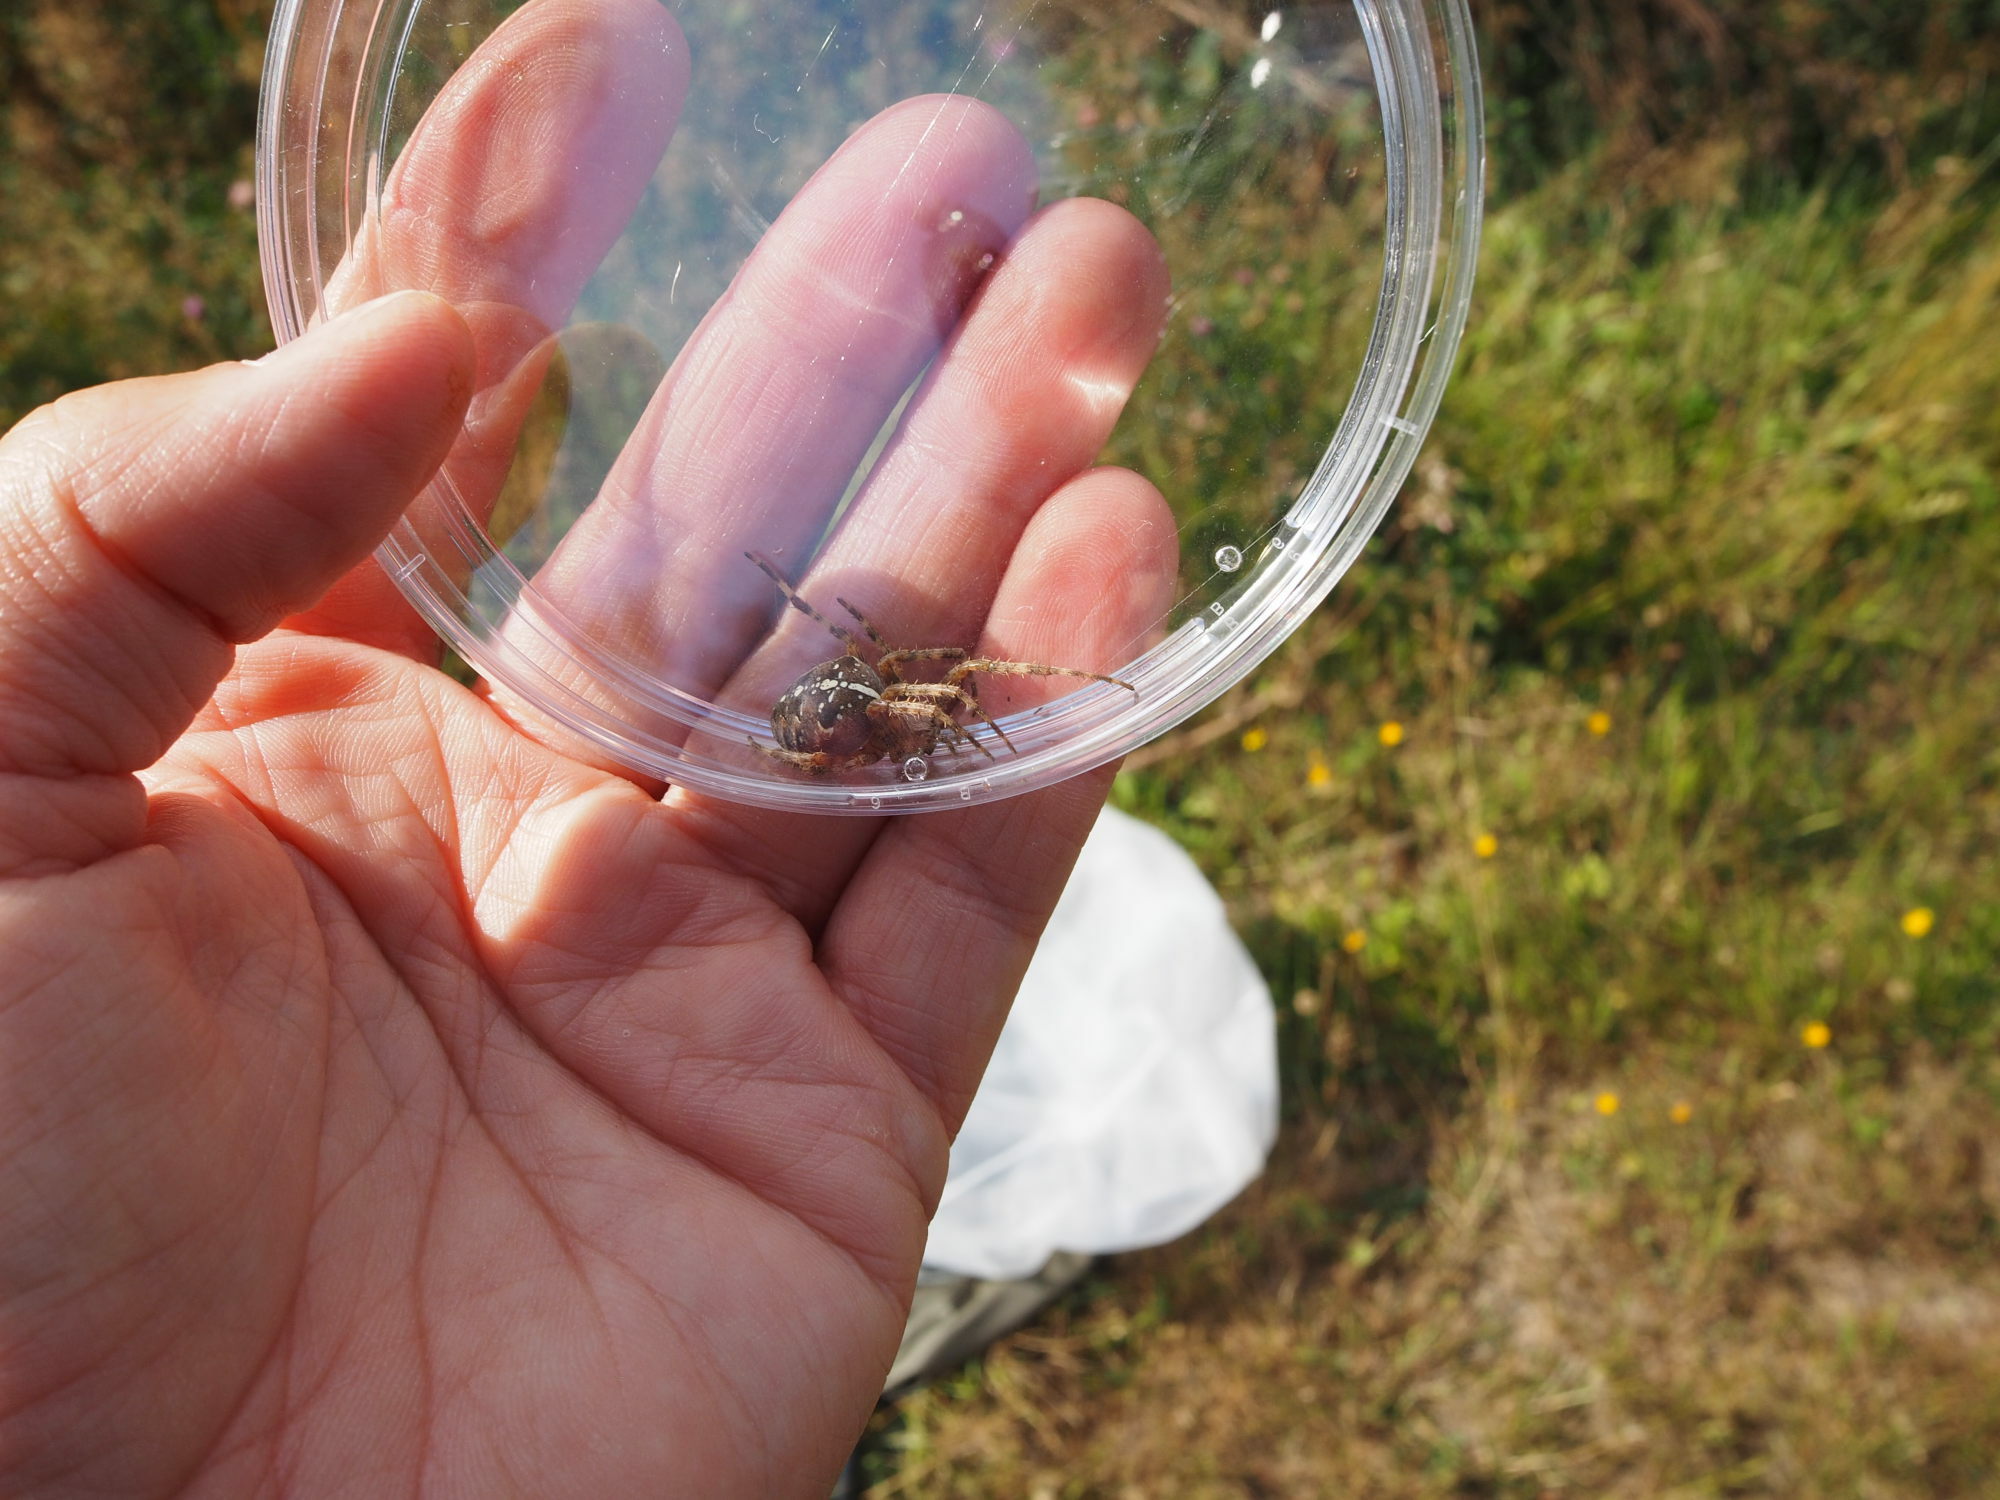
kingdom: Animalia
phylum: Arthropoda
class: Arachnida
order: Araneae
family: Araneidae
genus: Araneus
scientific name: Araneus diadematus
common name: Cross orbweaver
